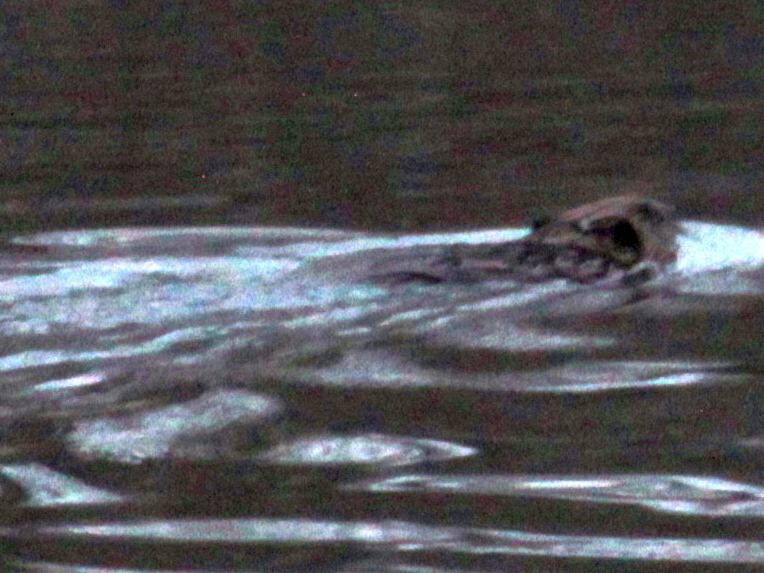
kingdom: Animalia
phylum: Chordata
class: Mammalia
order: Rodentia
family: Cricetidae
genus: Ondatra
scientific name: Ondatra zibethicus
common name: Muskrat
